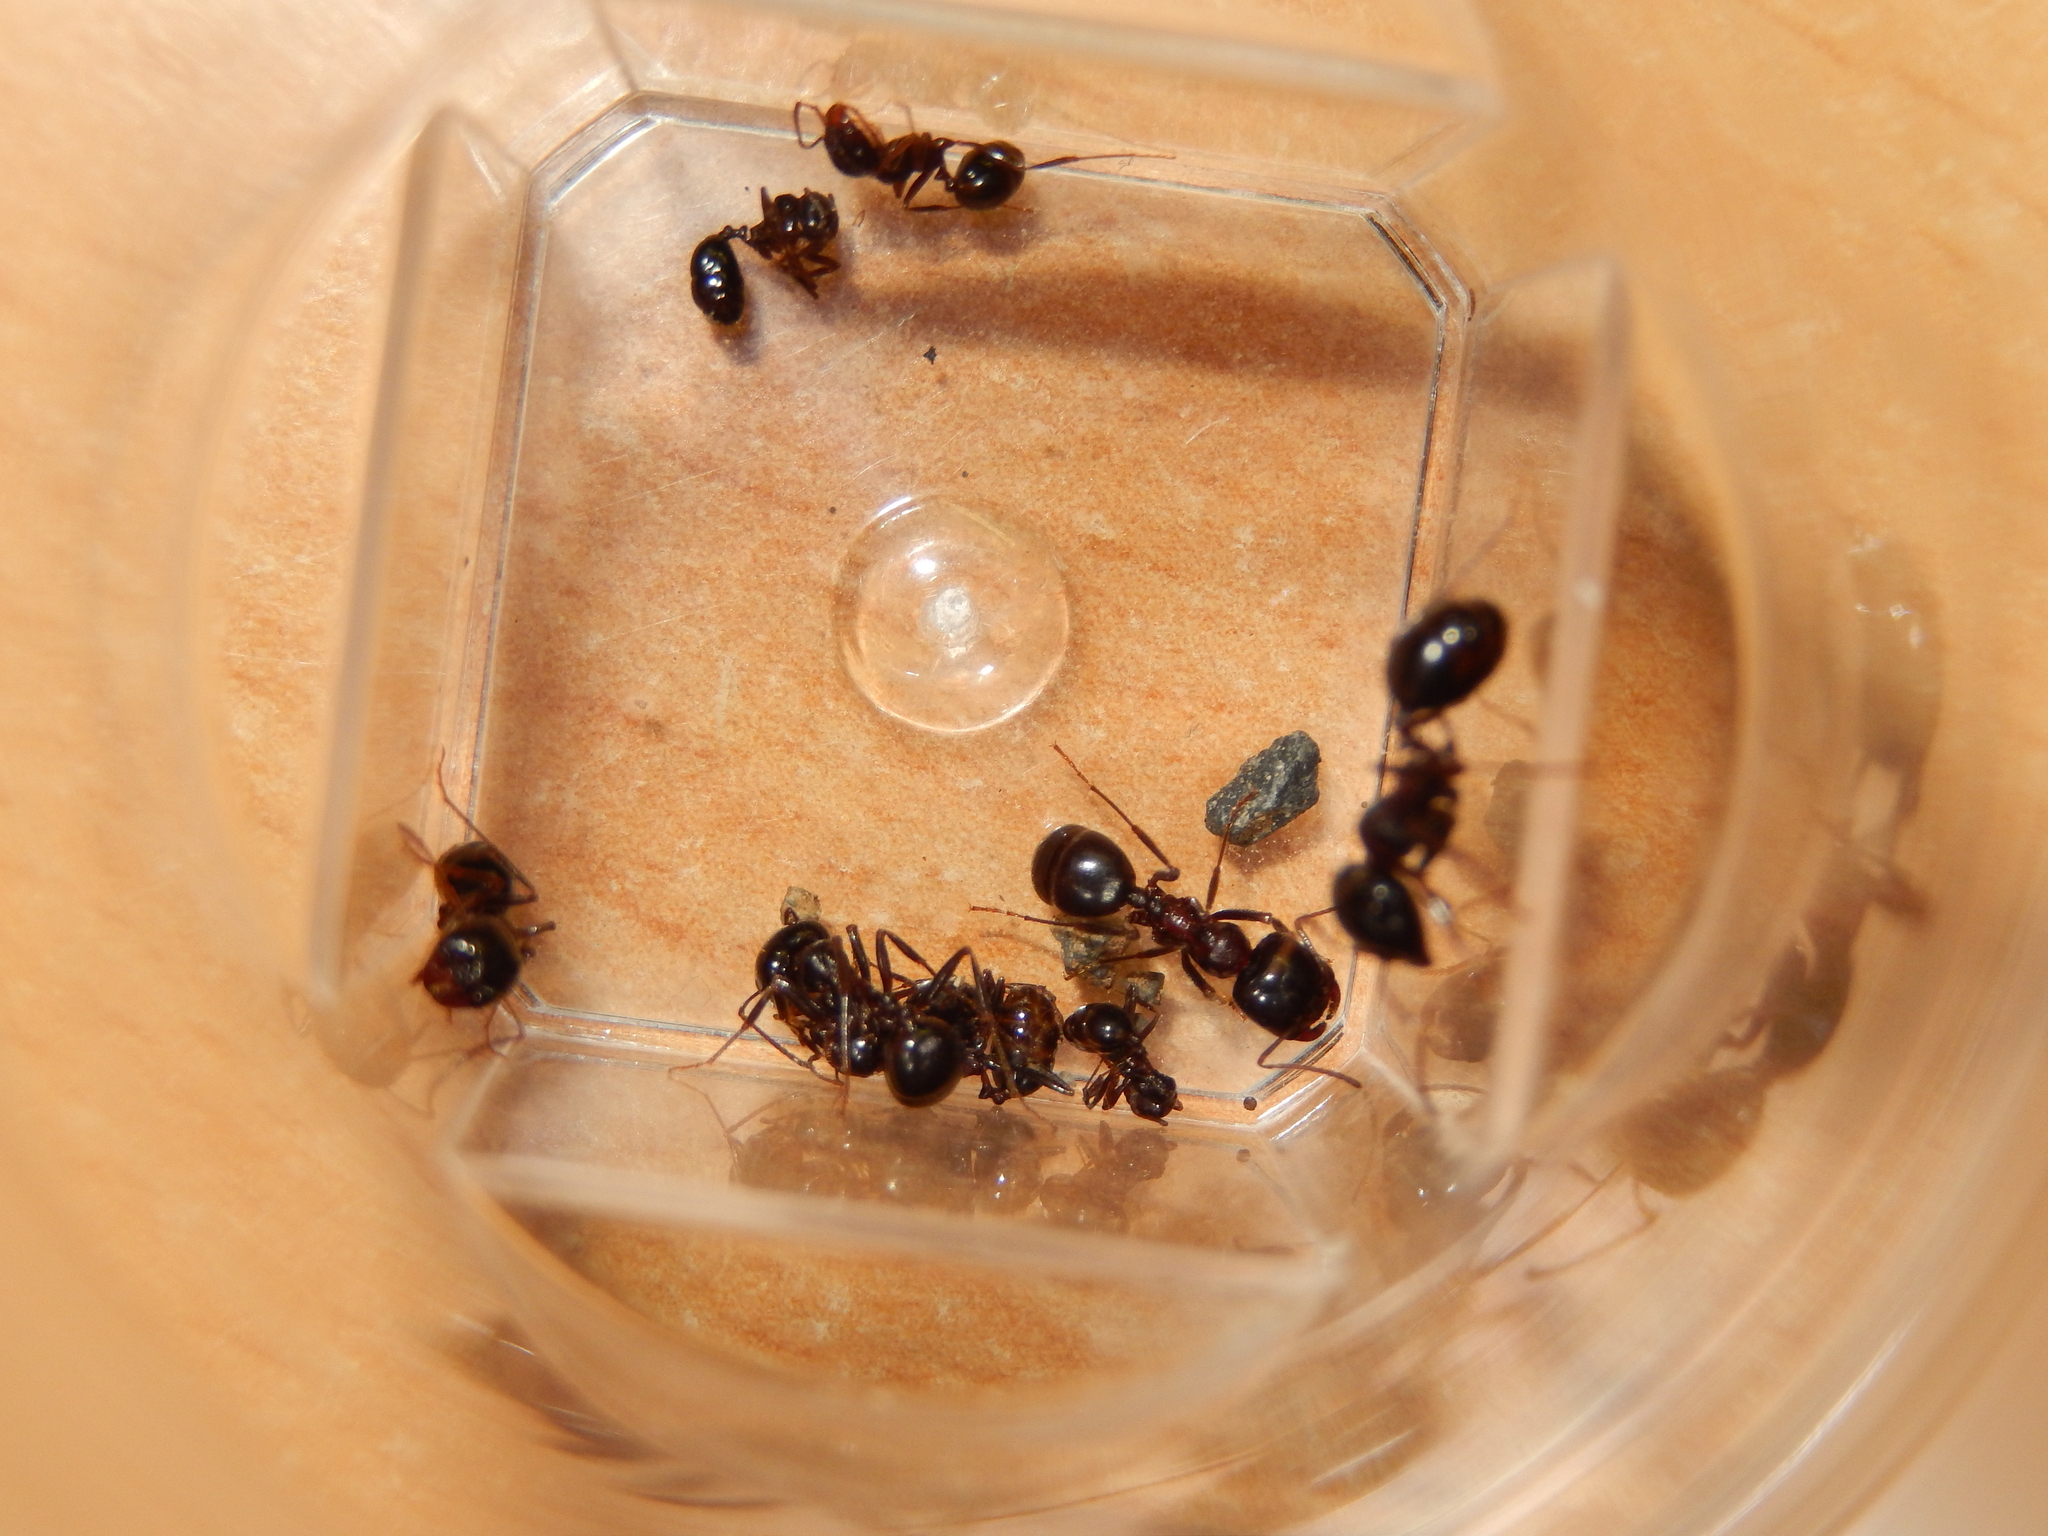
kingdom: Animalia
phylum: Arthropoda
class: Insecta
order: Hymenoptera
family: Formicidae
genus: Messor
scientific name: Messor wasmanni
